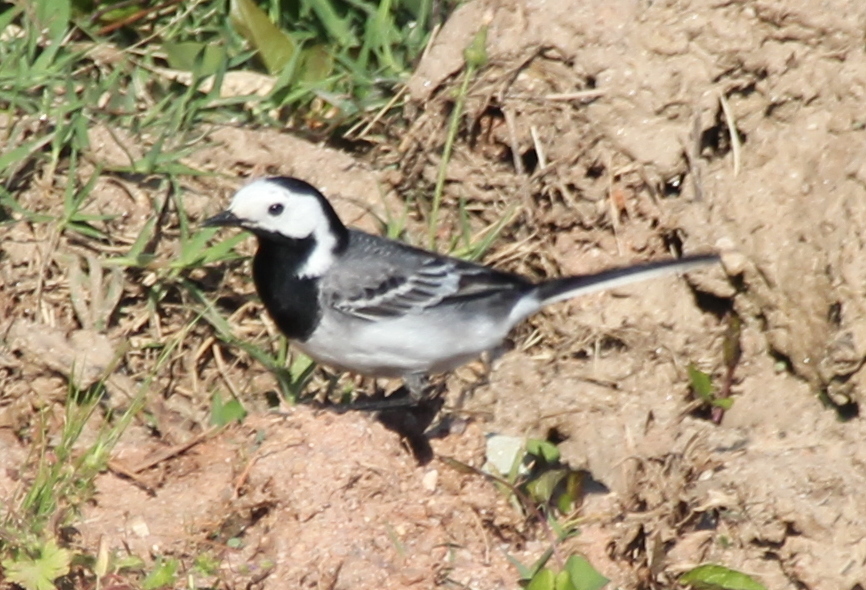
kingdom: Animalia
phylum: Chordata
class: Aves
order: Passeriformes
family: Motacillidae
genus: Motacilla
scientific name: Motacilla alba
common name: White wagtail
